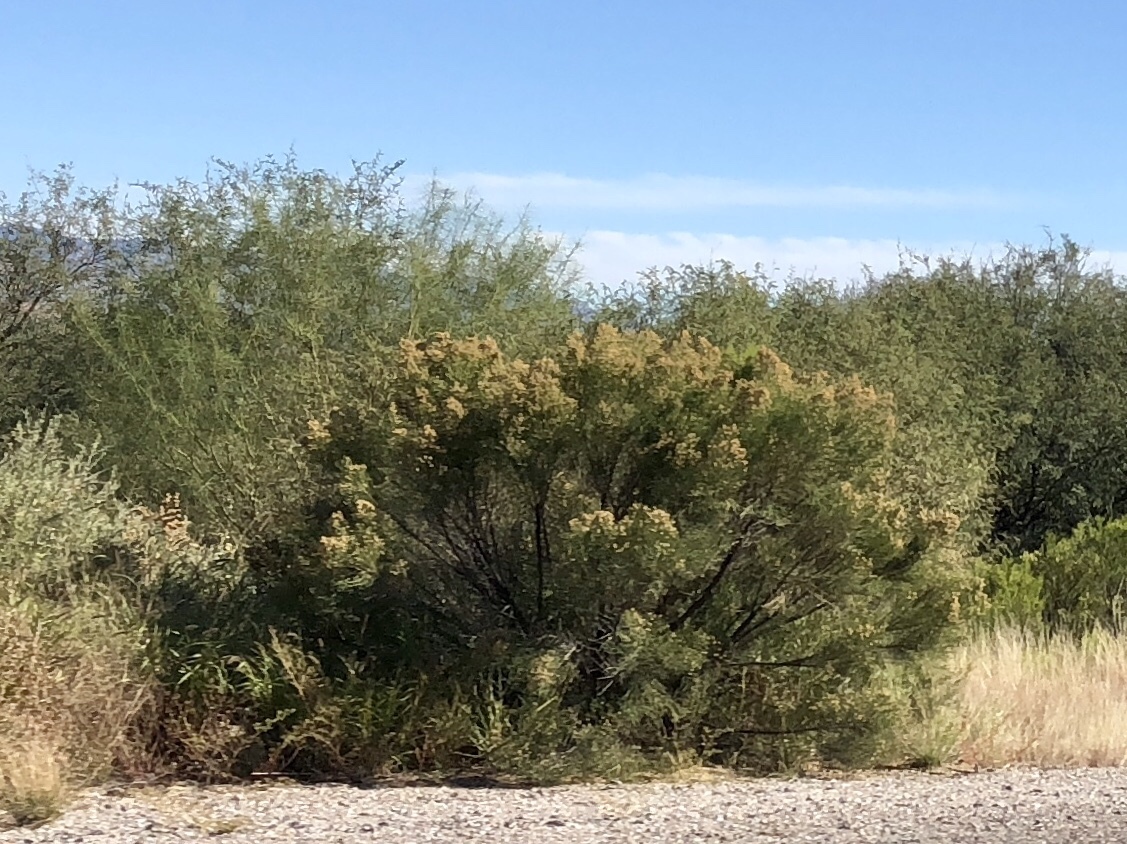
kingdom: Plantae
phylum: Tracheophyta
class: Magnoliopsida
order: Asterales
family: Asteraceae
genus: Baccharis
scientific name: Baccharis sarothroides
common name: Desert-broom
